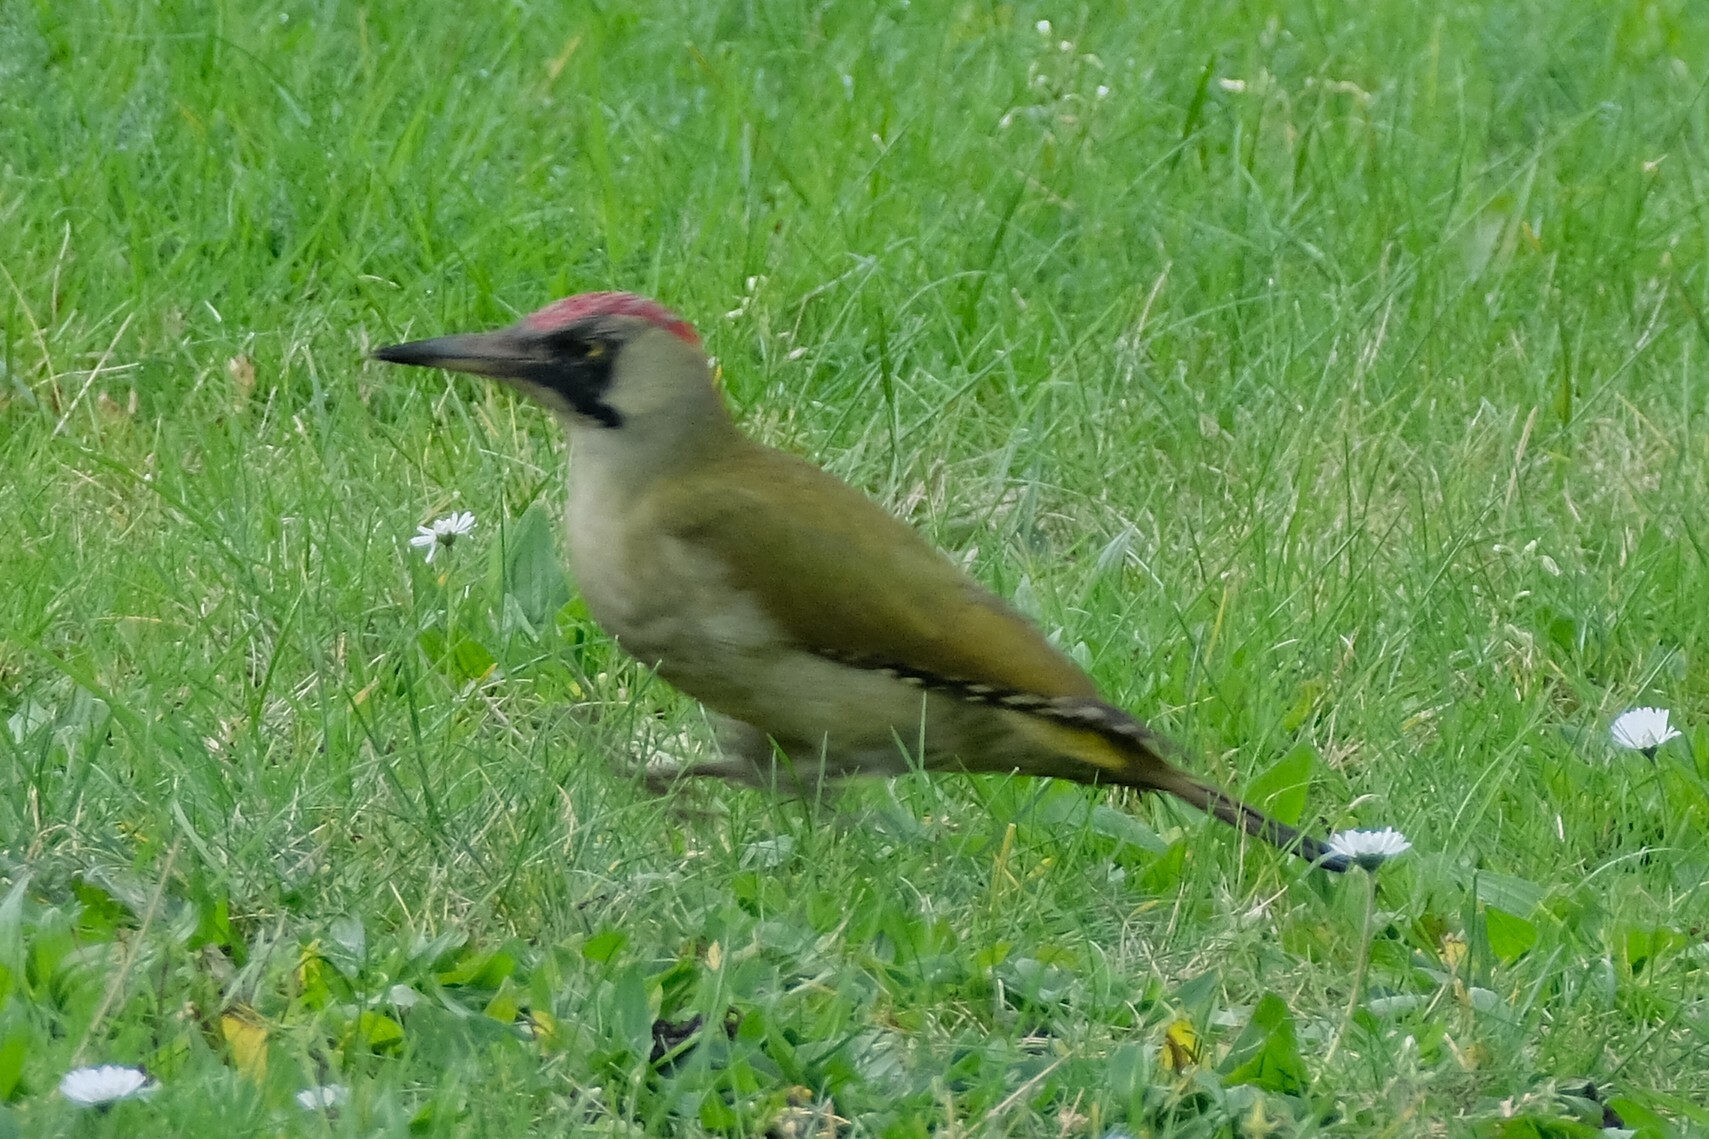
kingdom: Animalia
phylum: Chordata
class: Aves
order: Piciformes
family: Picidae
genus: Picus
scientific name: Picus viridis
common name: European green woodpecker
